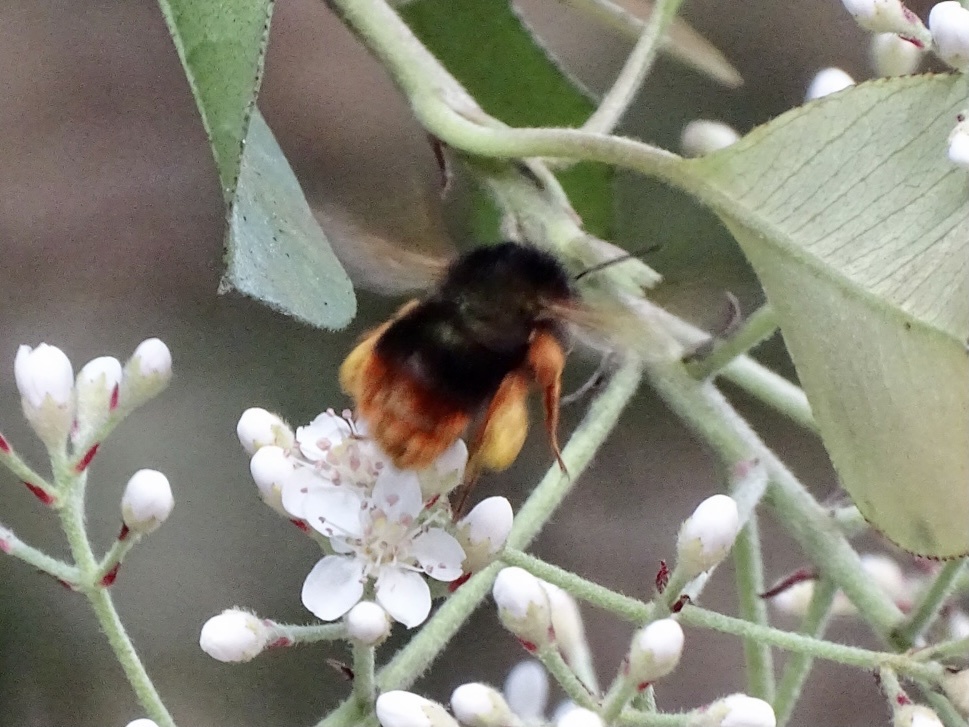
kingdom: Animalia
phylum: Arthropoda
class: Insecta
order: Hymenoptera
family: Apidae
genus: Bombus
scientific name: Bombus eximius
